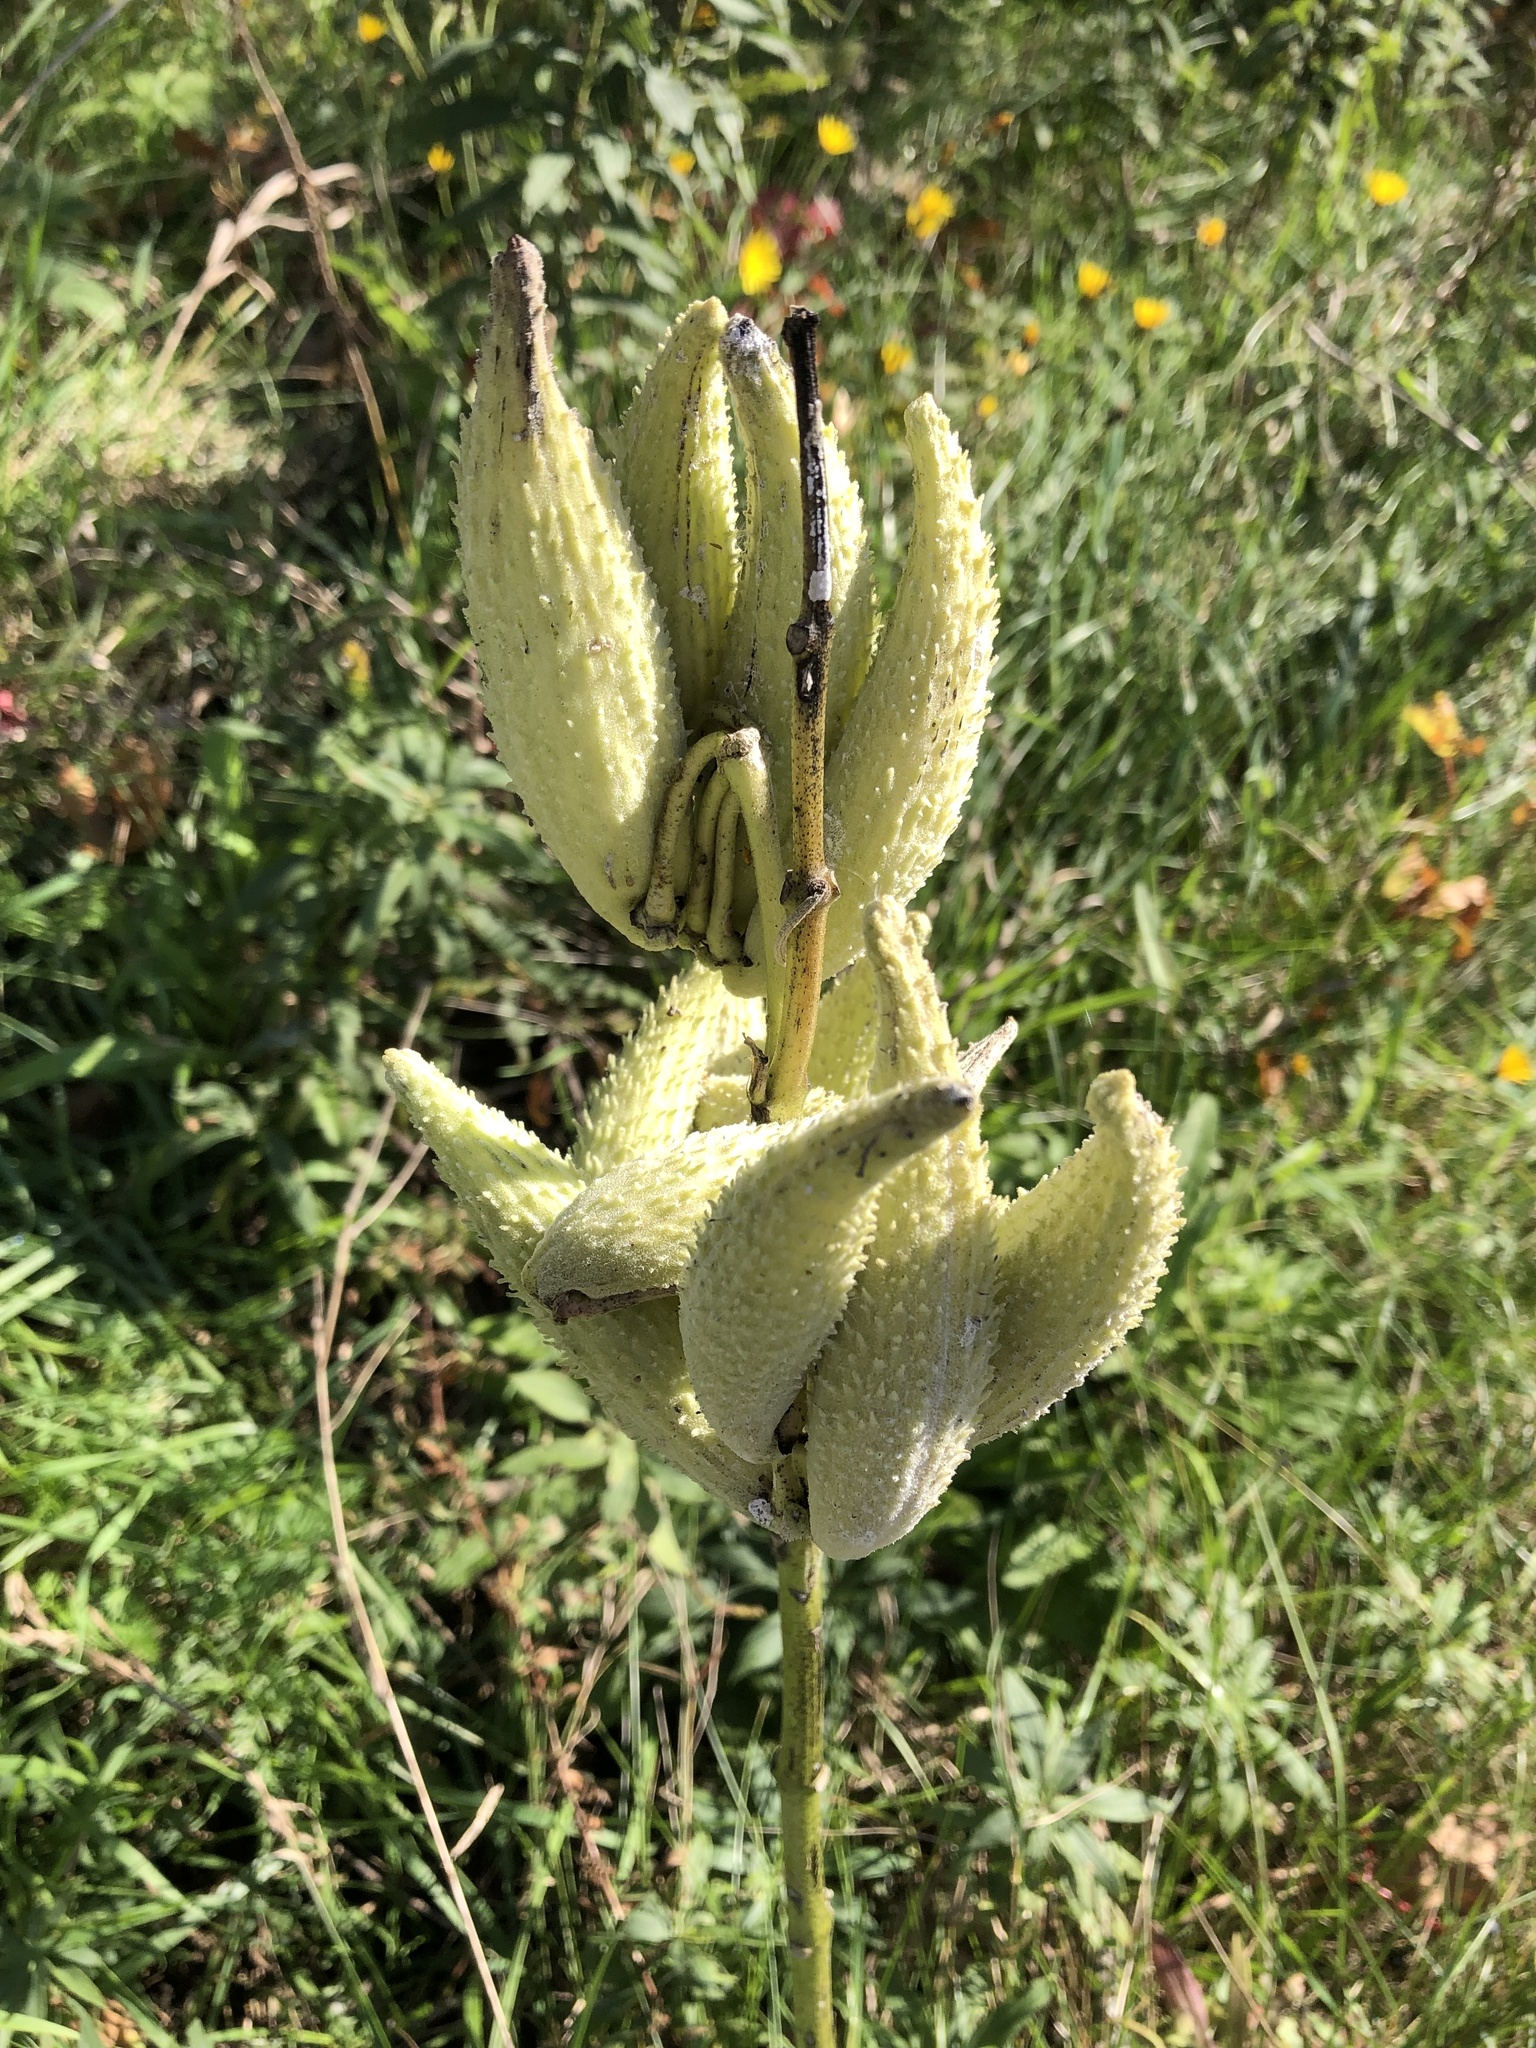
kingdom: Plantae
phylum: Tracheophyta
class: Magnoliopsida
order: Gentianales
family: Apocynaceae
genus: Asclepias
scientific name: Asclepias syriaca
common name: Common milkweed
